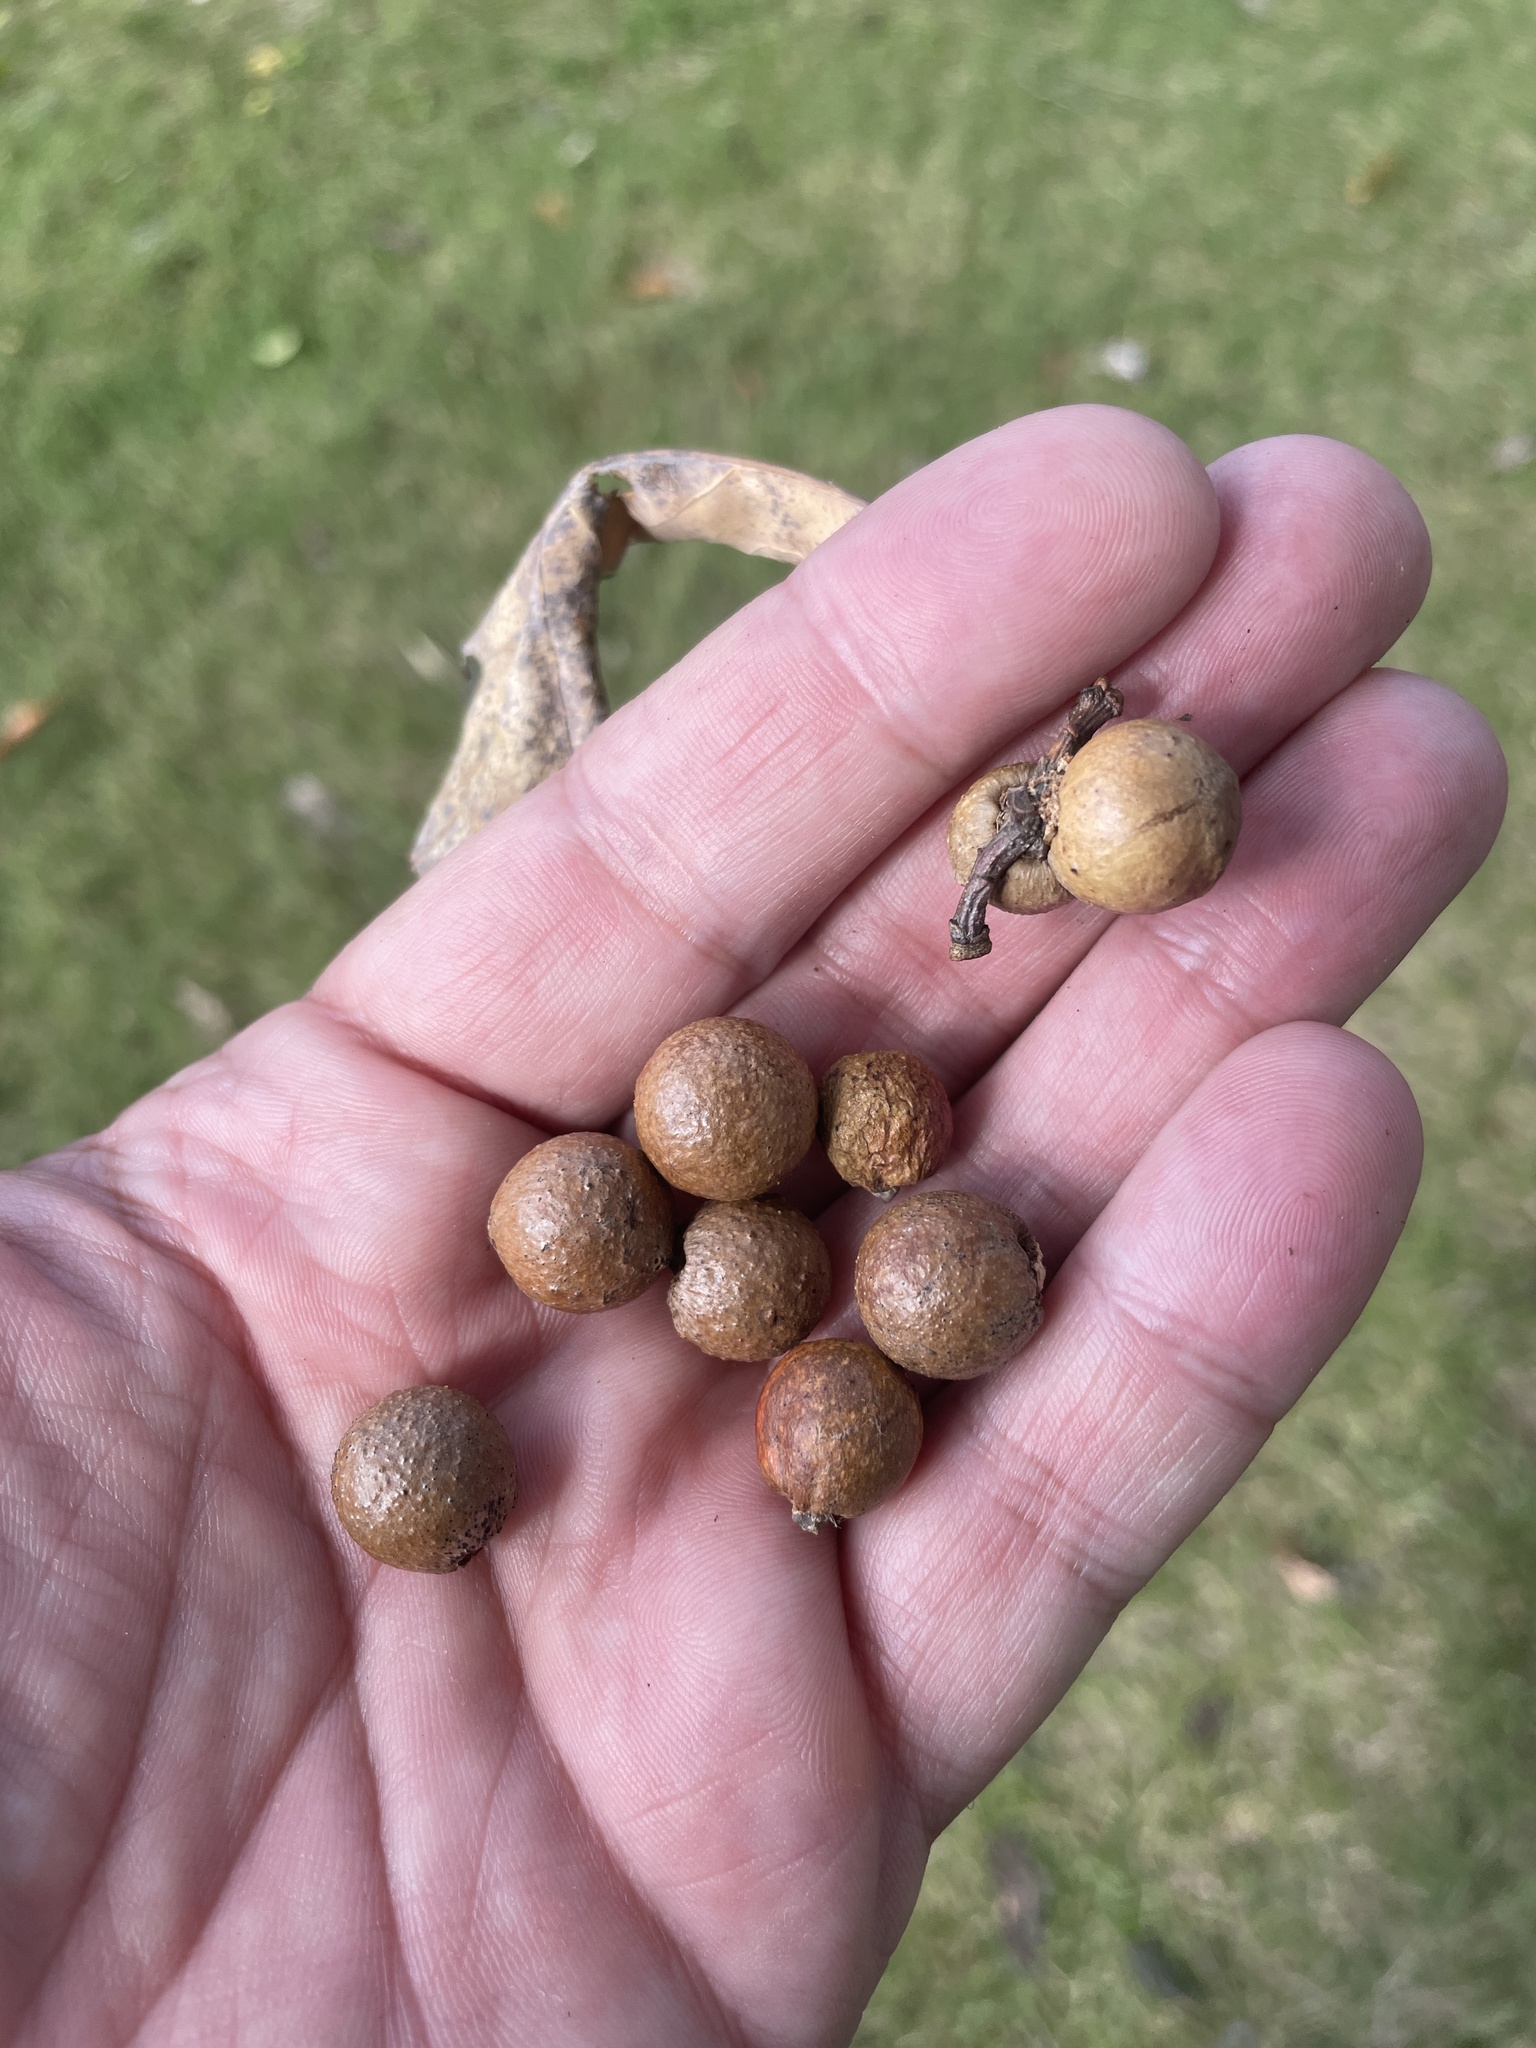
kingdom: Animalia
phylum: Arthropoda
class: Insecta
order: Hymenoptera
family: Cynipidae
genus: Disholcaspis
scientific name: Disholcaspis quercusglobulus
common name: Round bullet gall wasp
